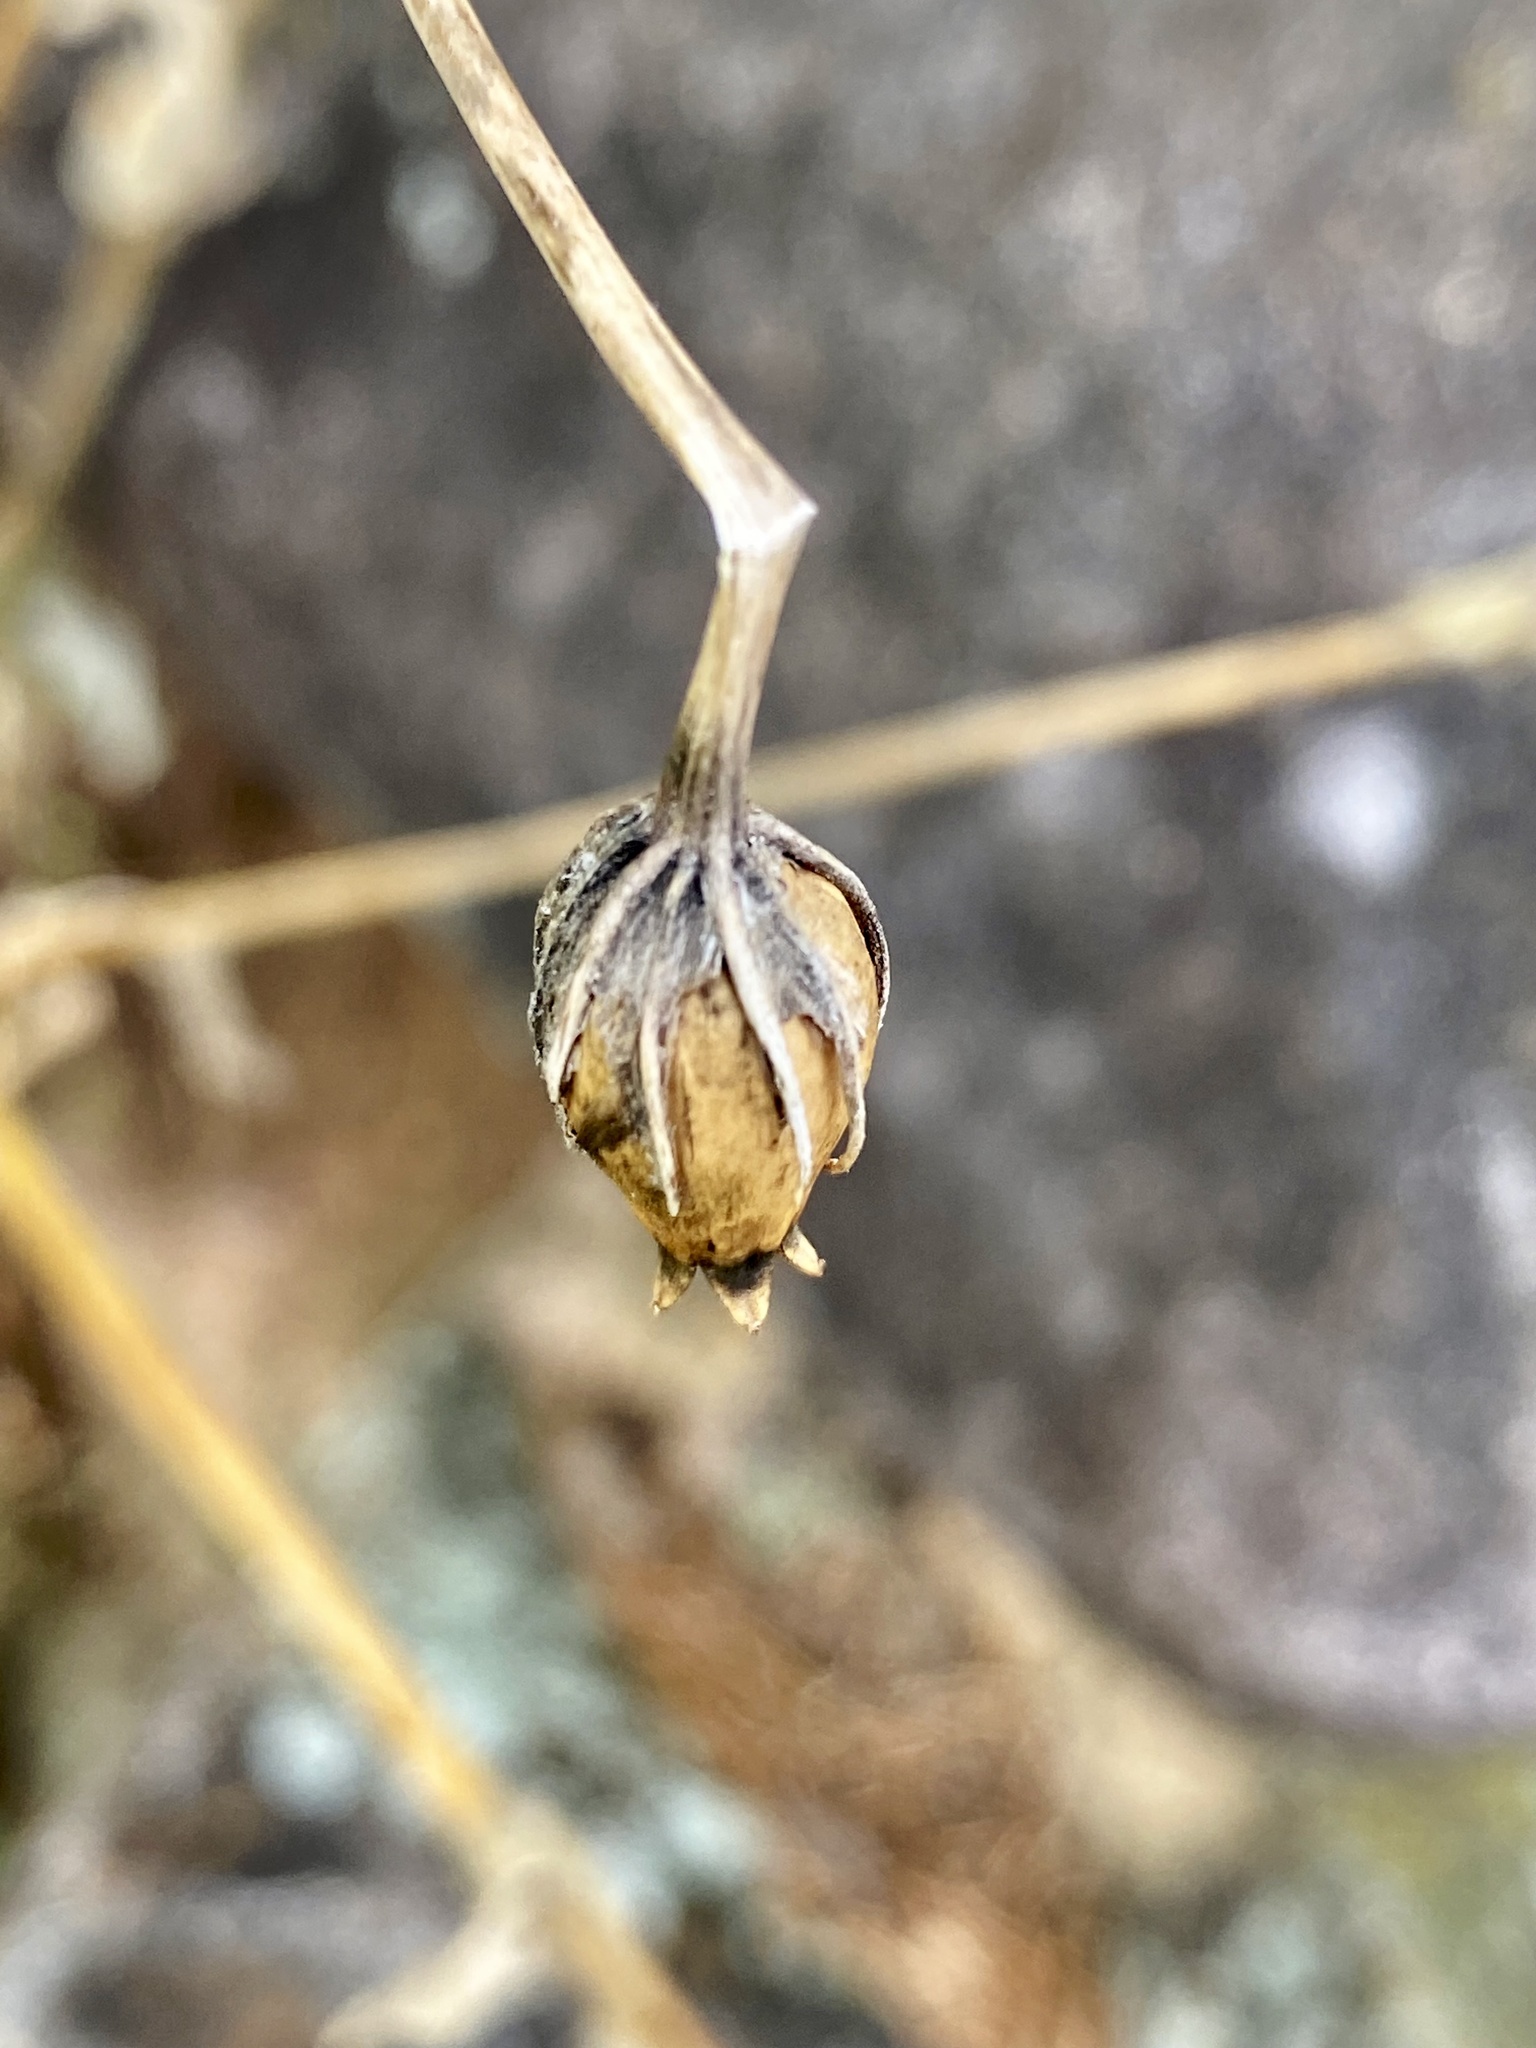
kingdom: Plantae
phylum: Tracheophyta
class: Magnoliopsida
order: Caryophyllales
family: Caryophyllaceae
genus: Silene
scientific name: Silene coronaria
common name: Rose campion
